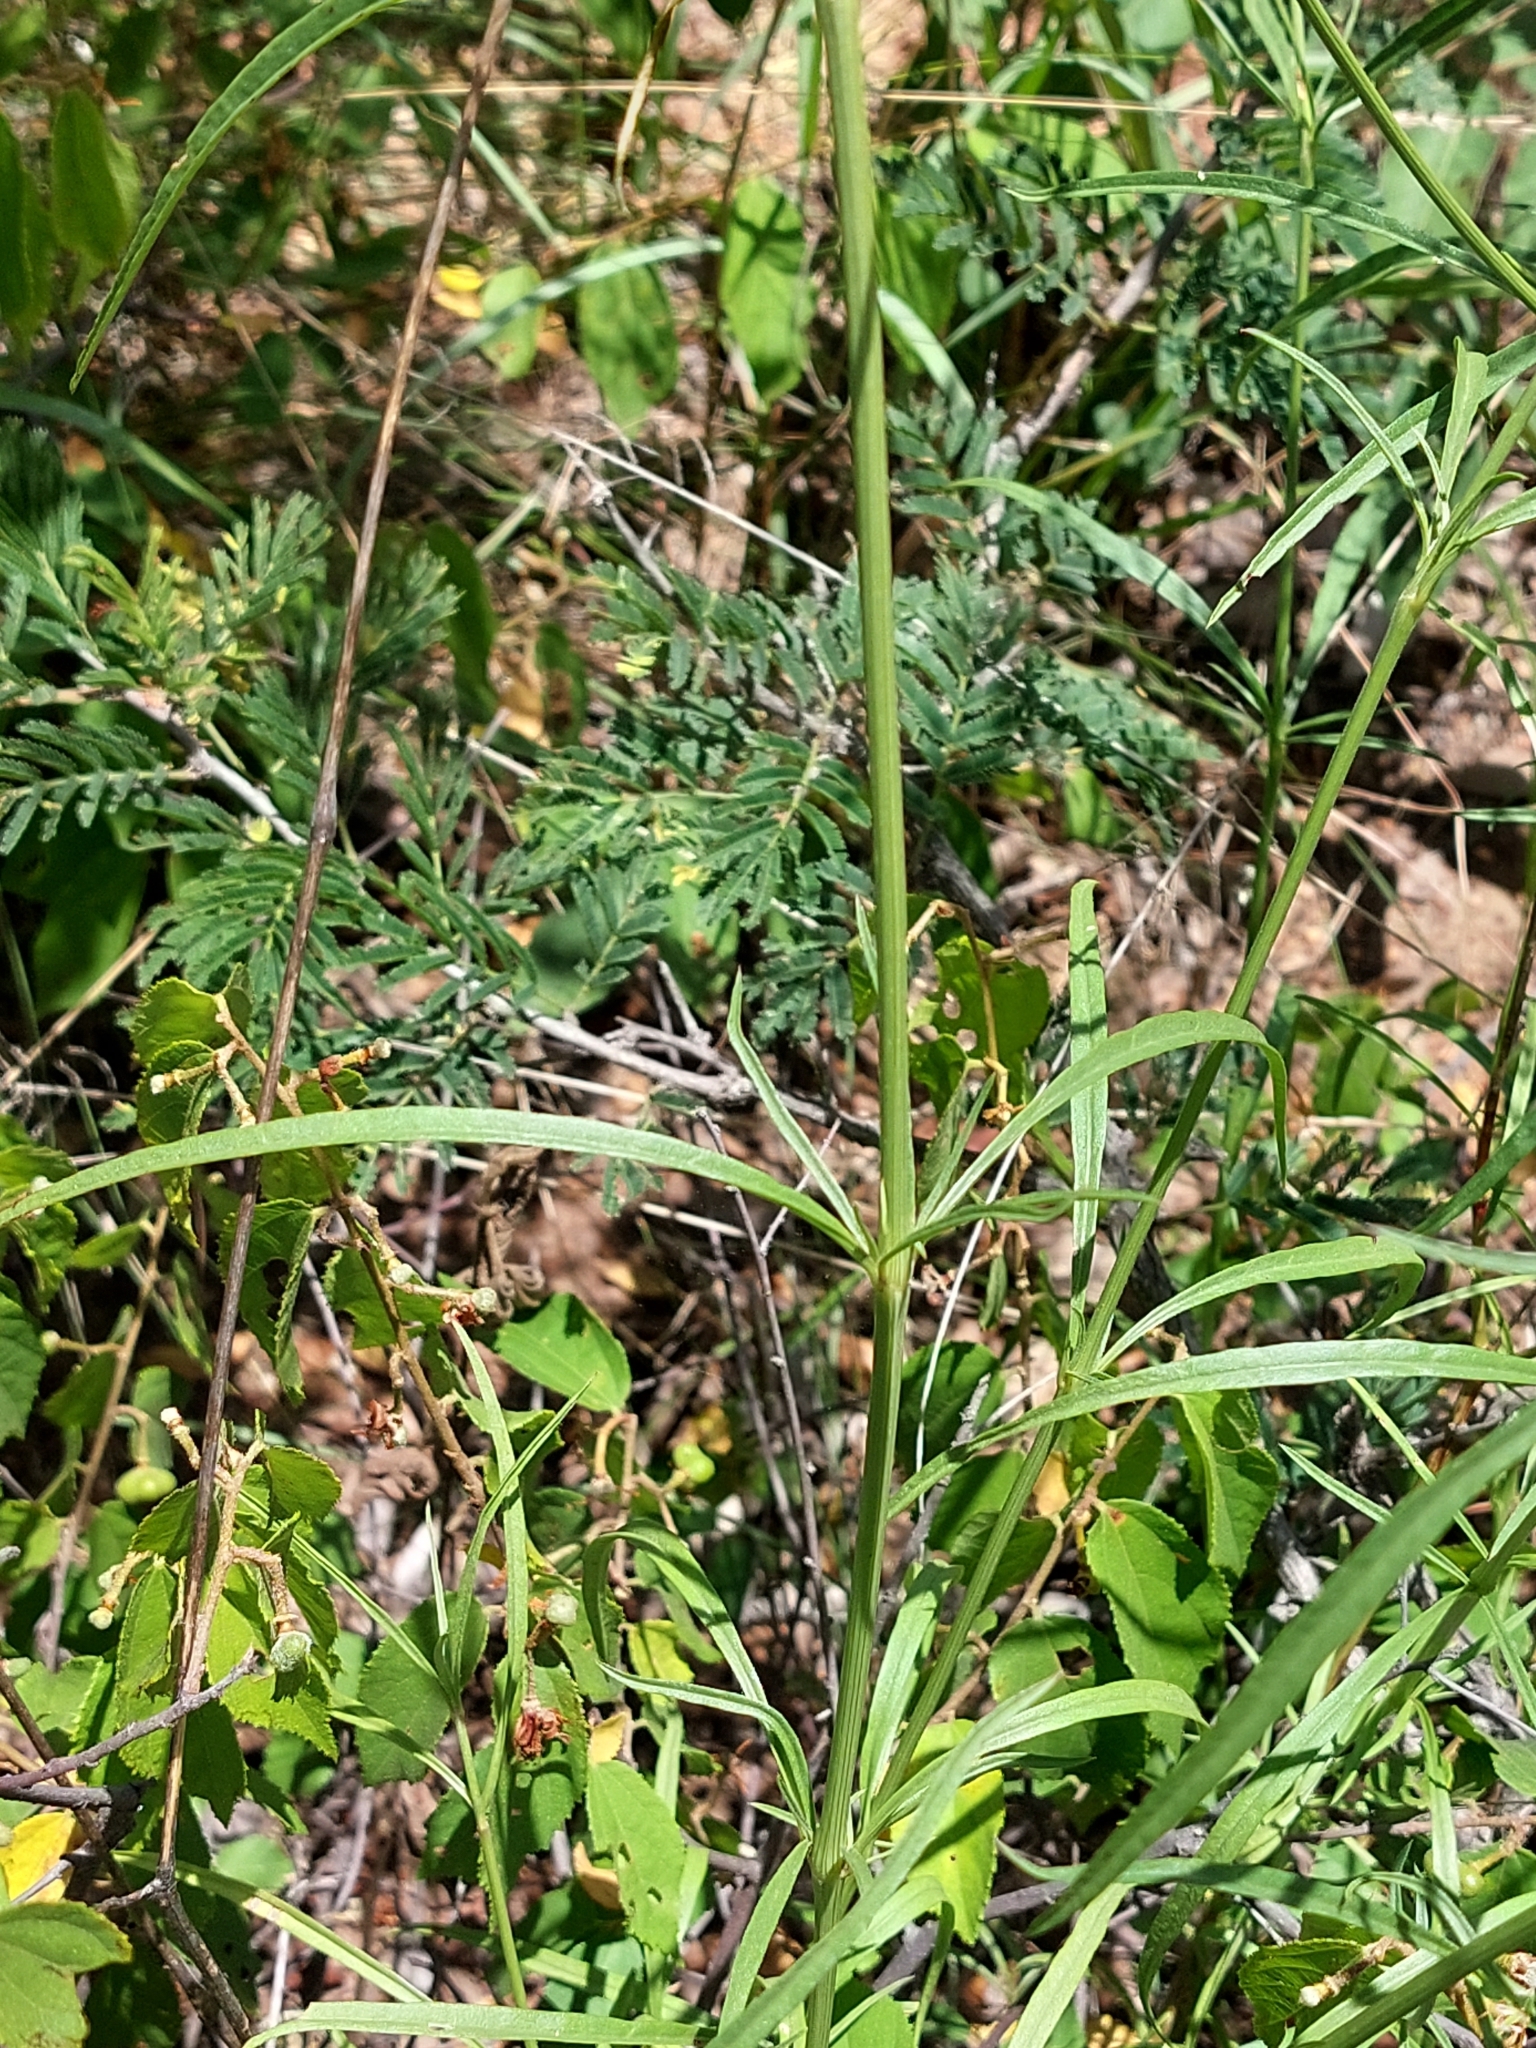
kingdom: Plantae
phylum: Tracheophyta
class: Magnoliopsida
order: Caryophyllales
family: Amaranthaceae
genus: Cyphocarpa
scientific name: Cyphocarpa angustifolia
